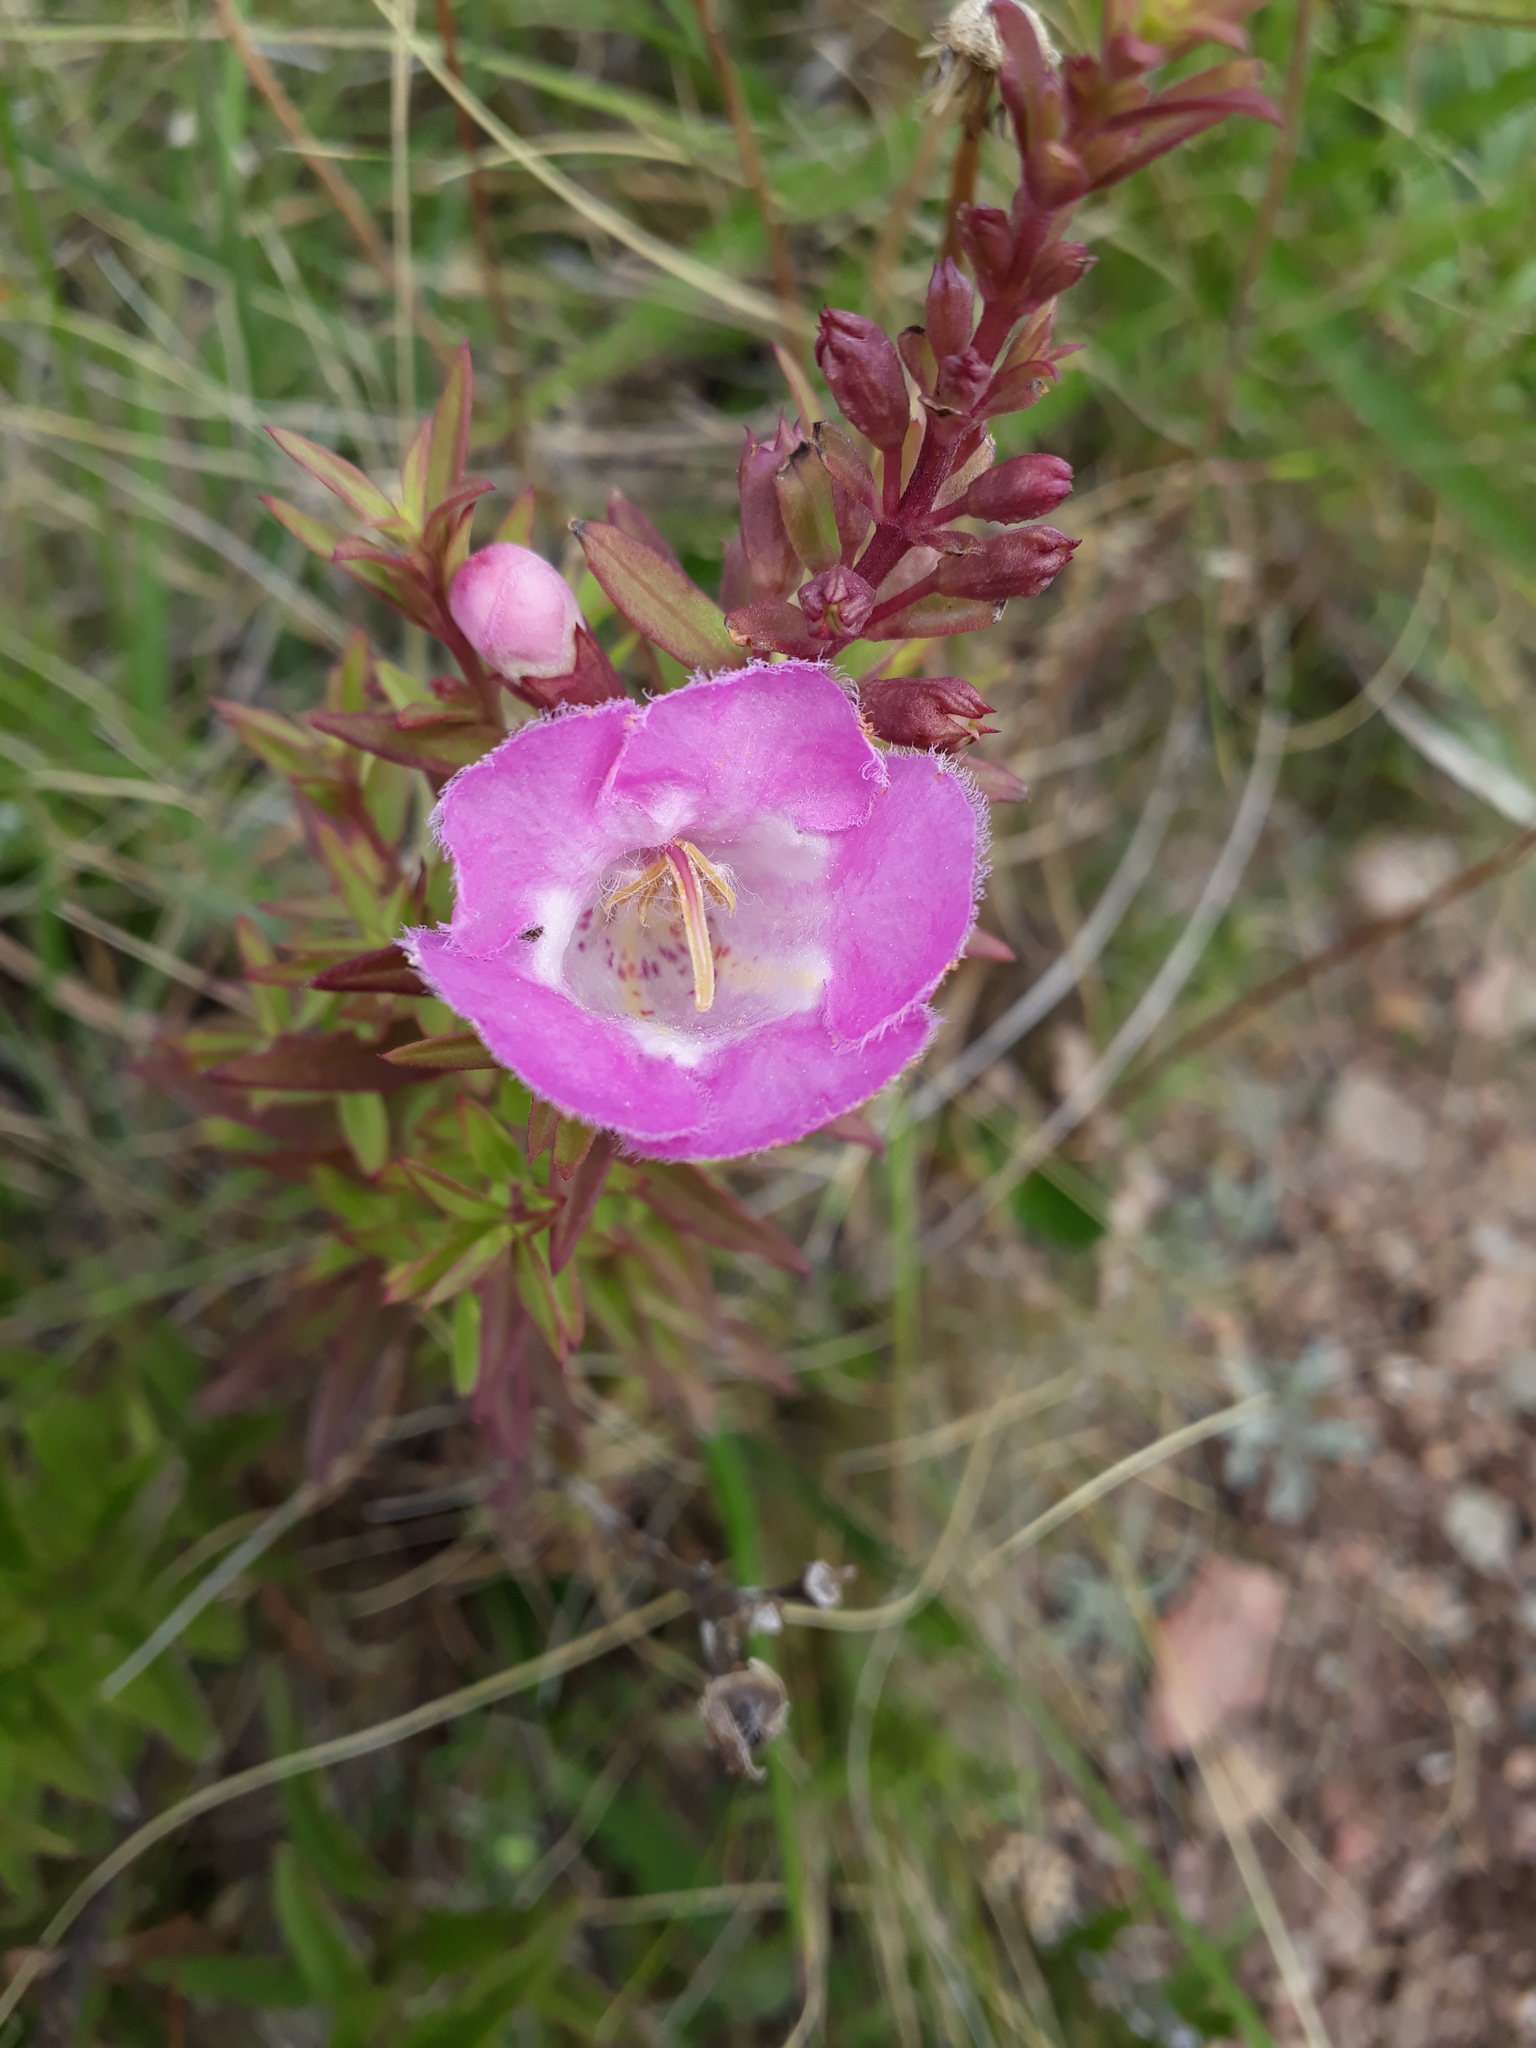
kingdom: Plantae
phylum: Tracheophyta
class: Magnoliopsida
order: Lamiales
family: Orobanchaceae
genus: Agalinis
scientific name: Agalinis genistifolia
